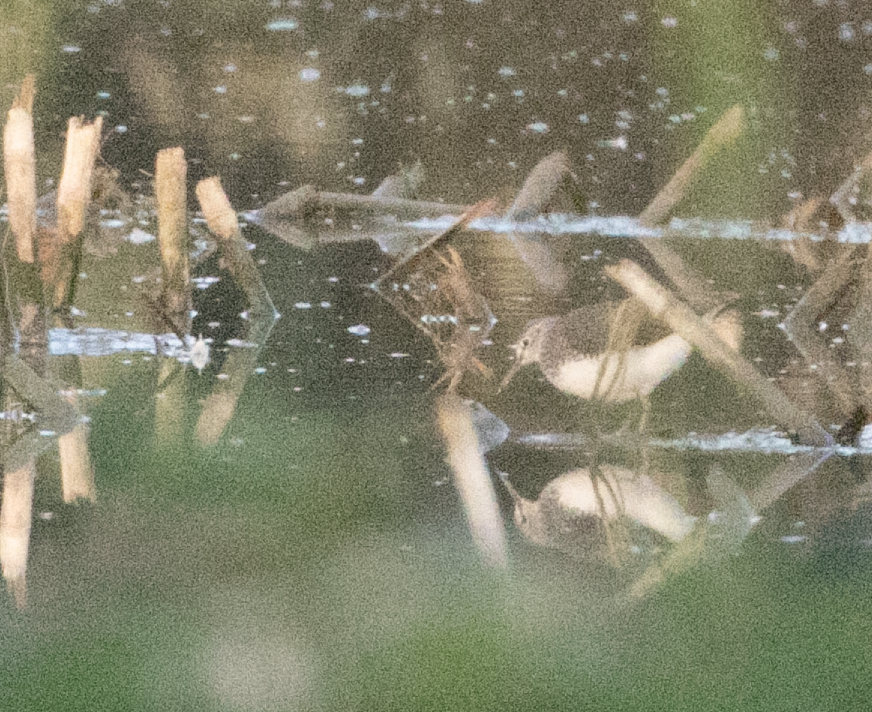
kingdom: Animalia
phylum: Chordata
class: Aves
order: Charadriiformes
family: Scolopacidae
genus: Tringa
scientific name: Tringa ochropus
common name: Green sandpiper
